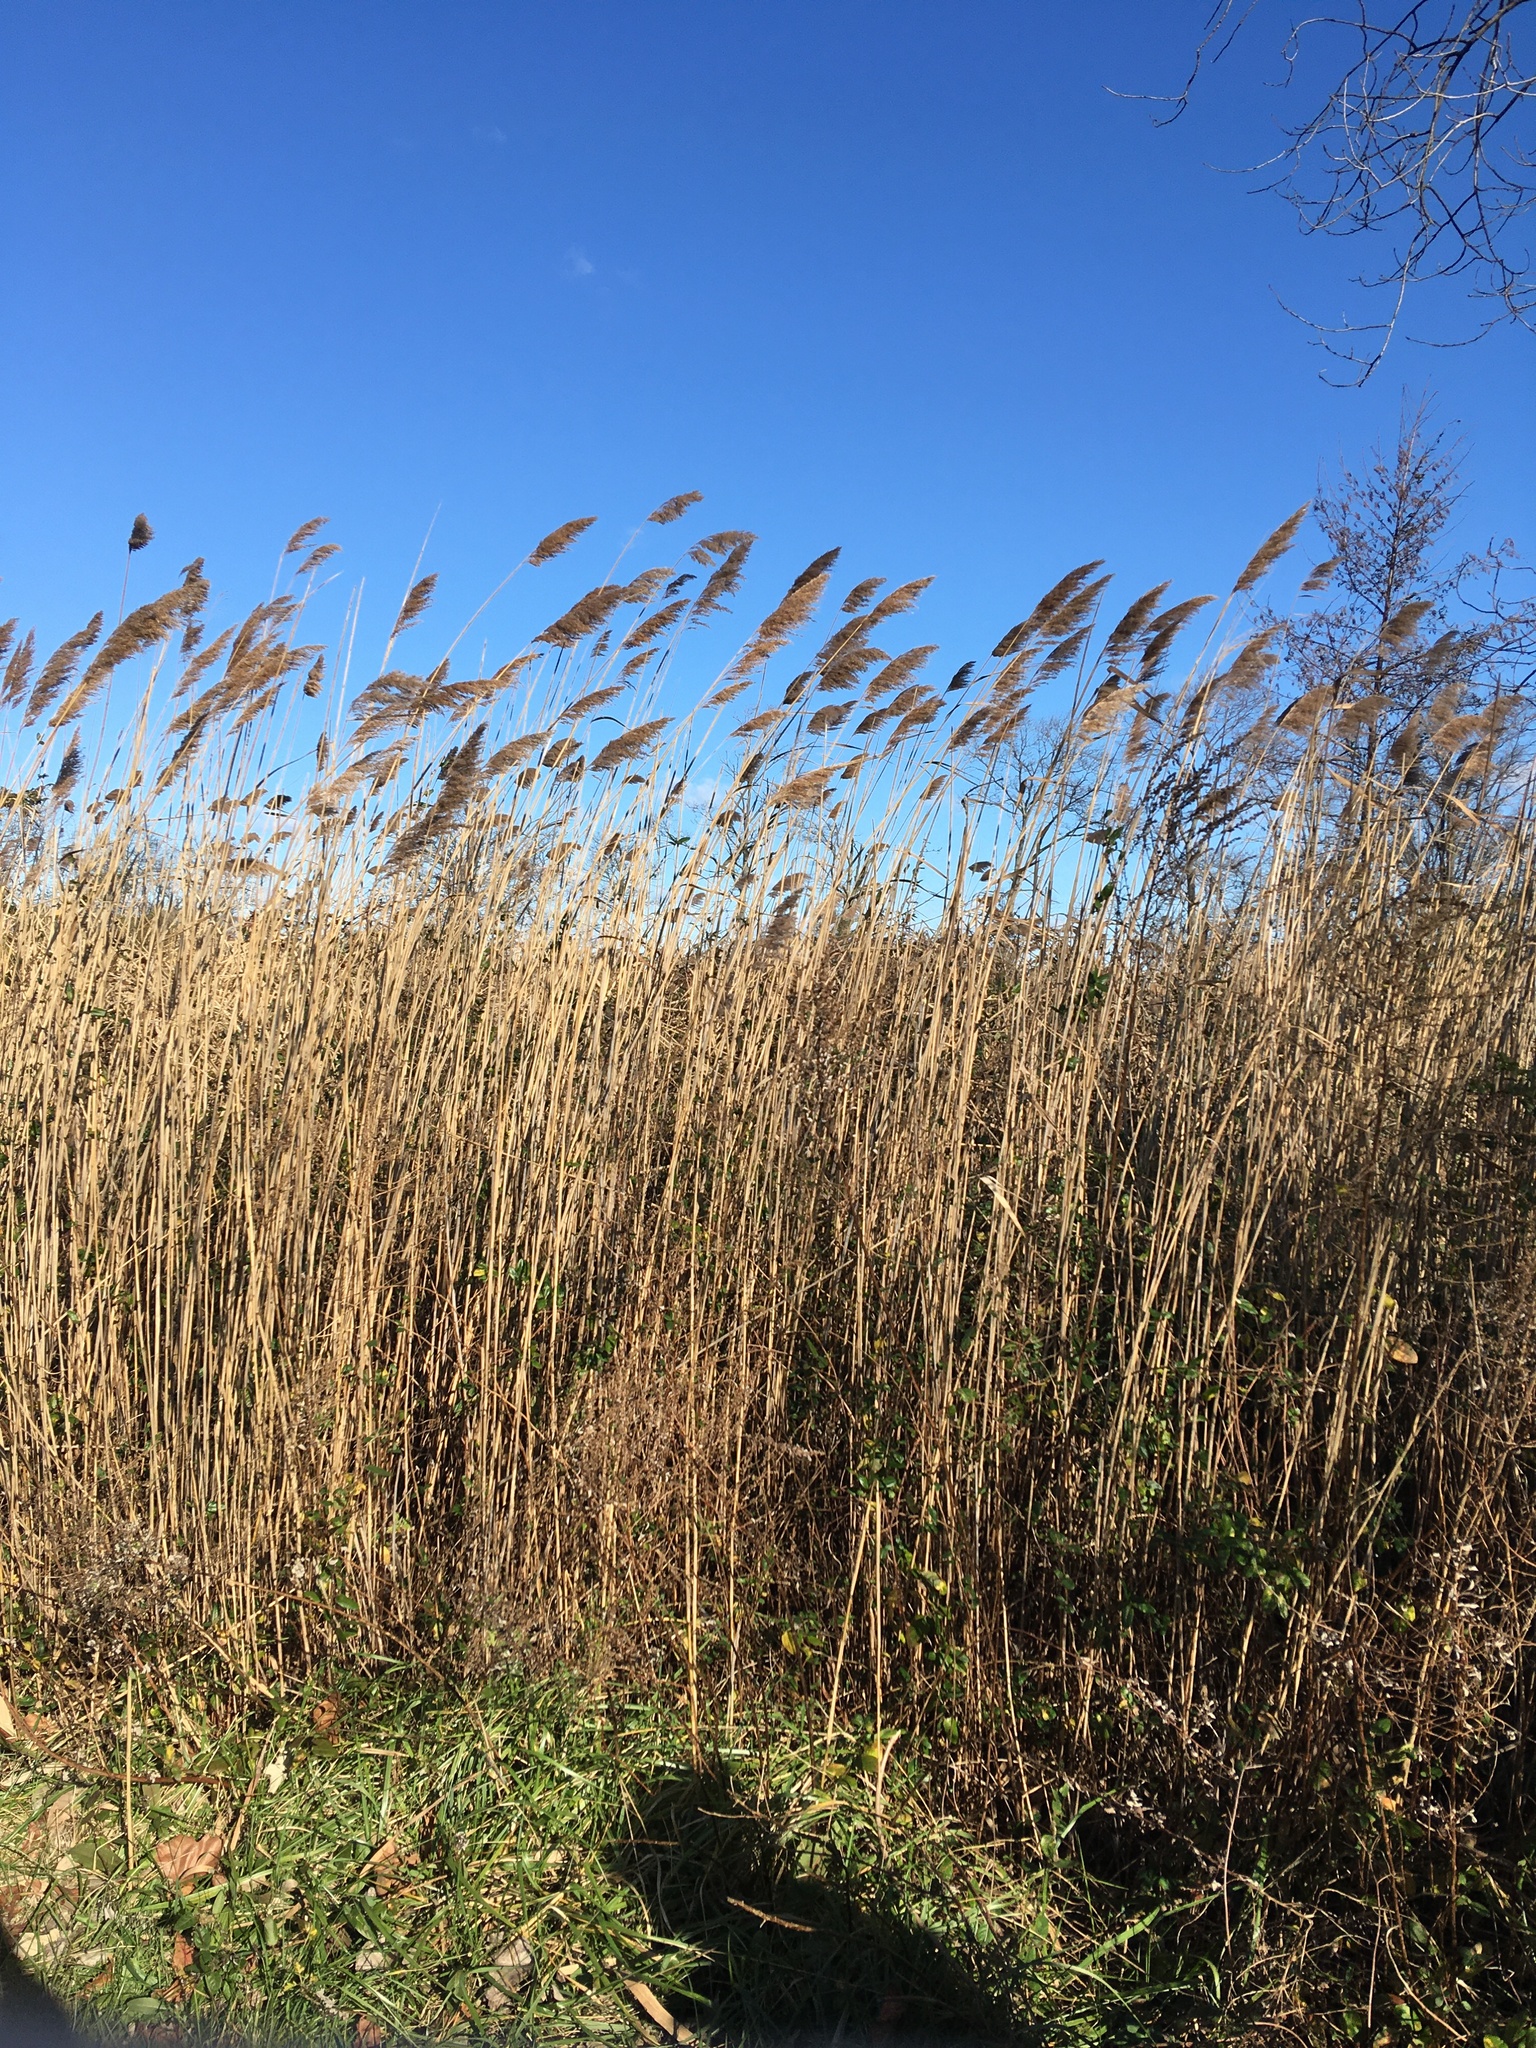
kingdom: Plantae
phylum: Tracheophyta
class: Liliopsida
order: Poales
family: Poaceae
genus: Phragmites
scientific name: Phragmites australis
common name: Common reed
